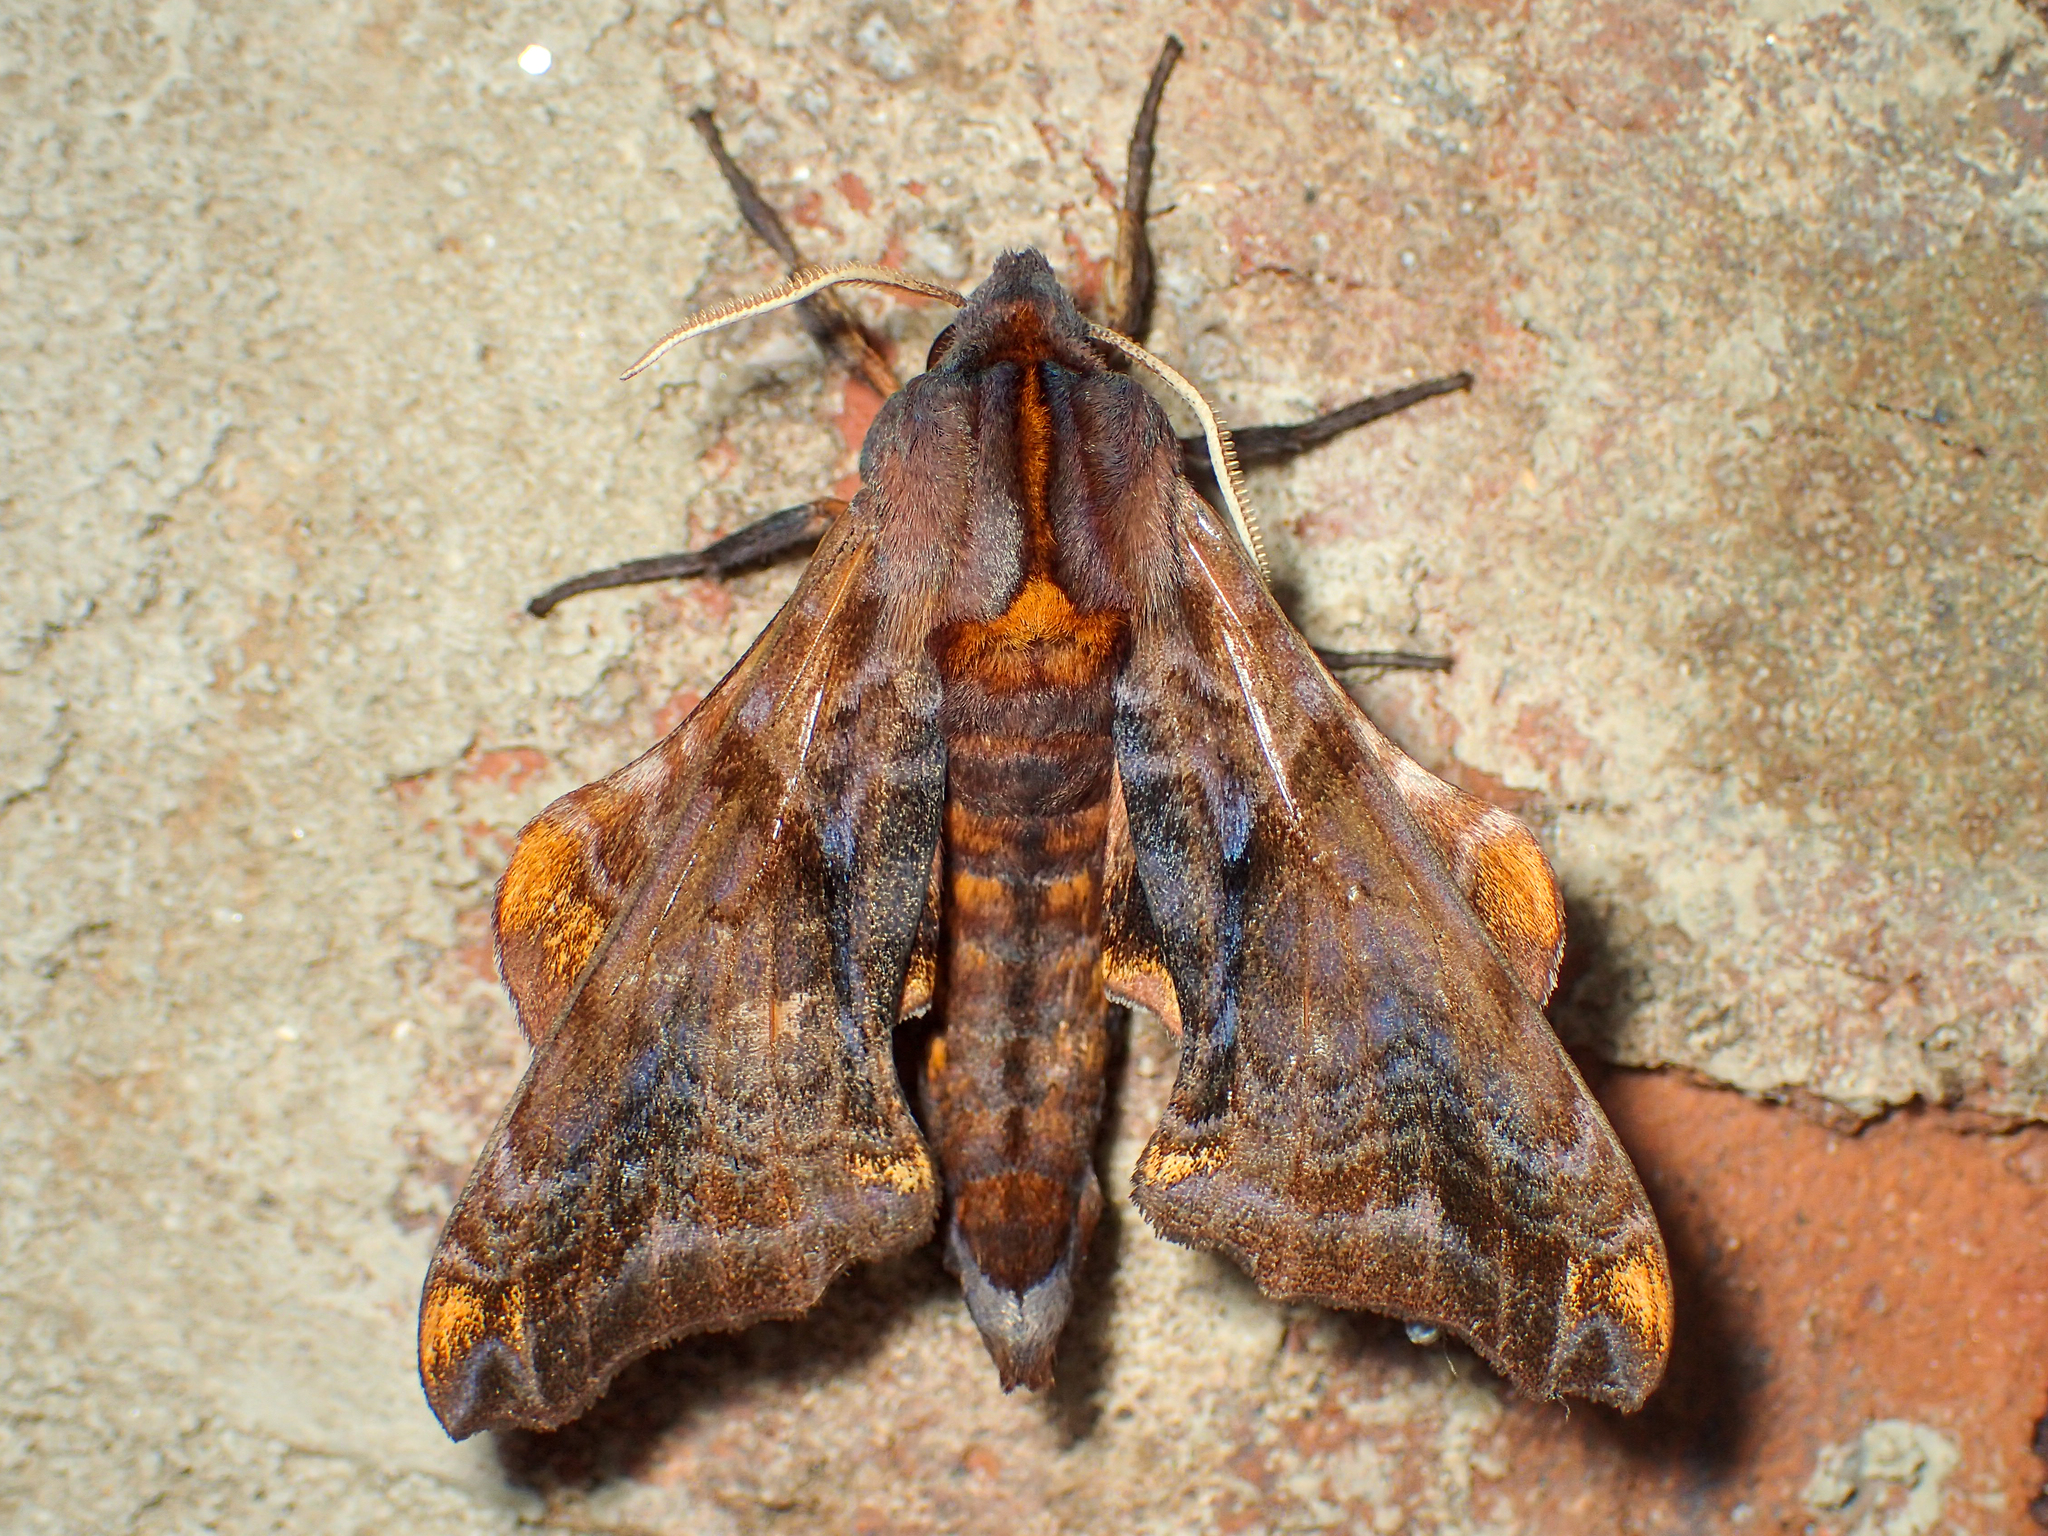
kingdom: Animalia
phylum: Arthropoda
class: Insecta
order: Lepidoptera
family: Sphingidae
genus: Paonias
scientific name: Paonias myops
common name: Small-eyed sphinx
